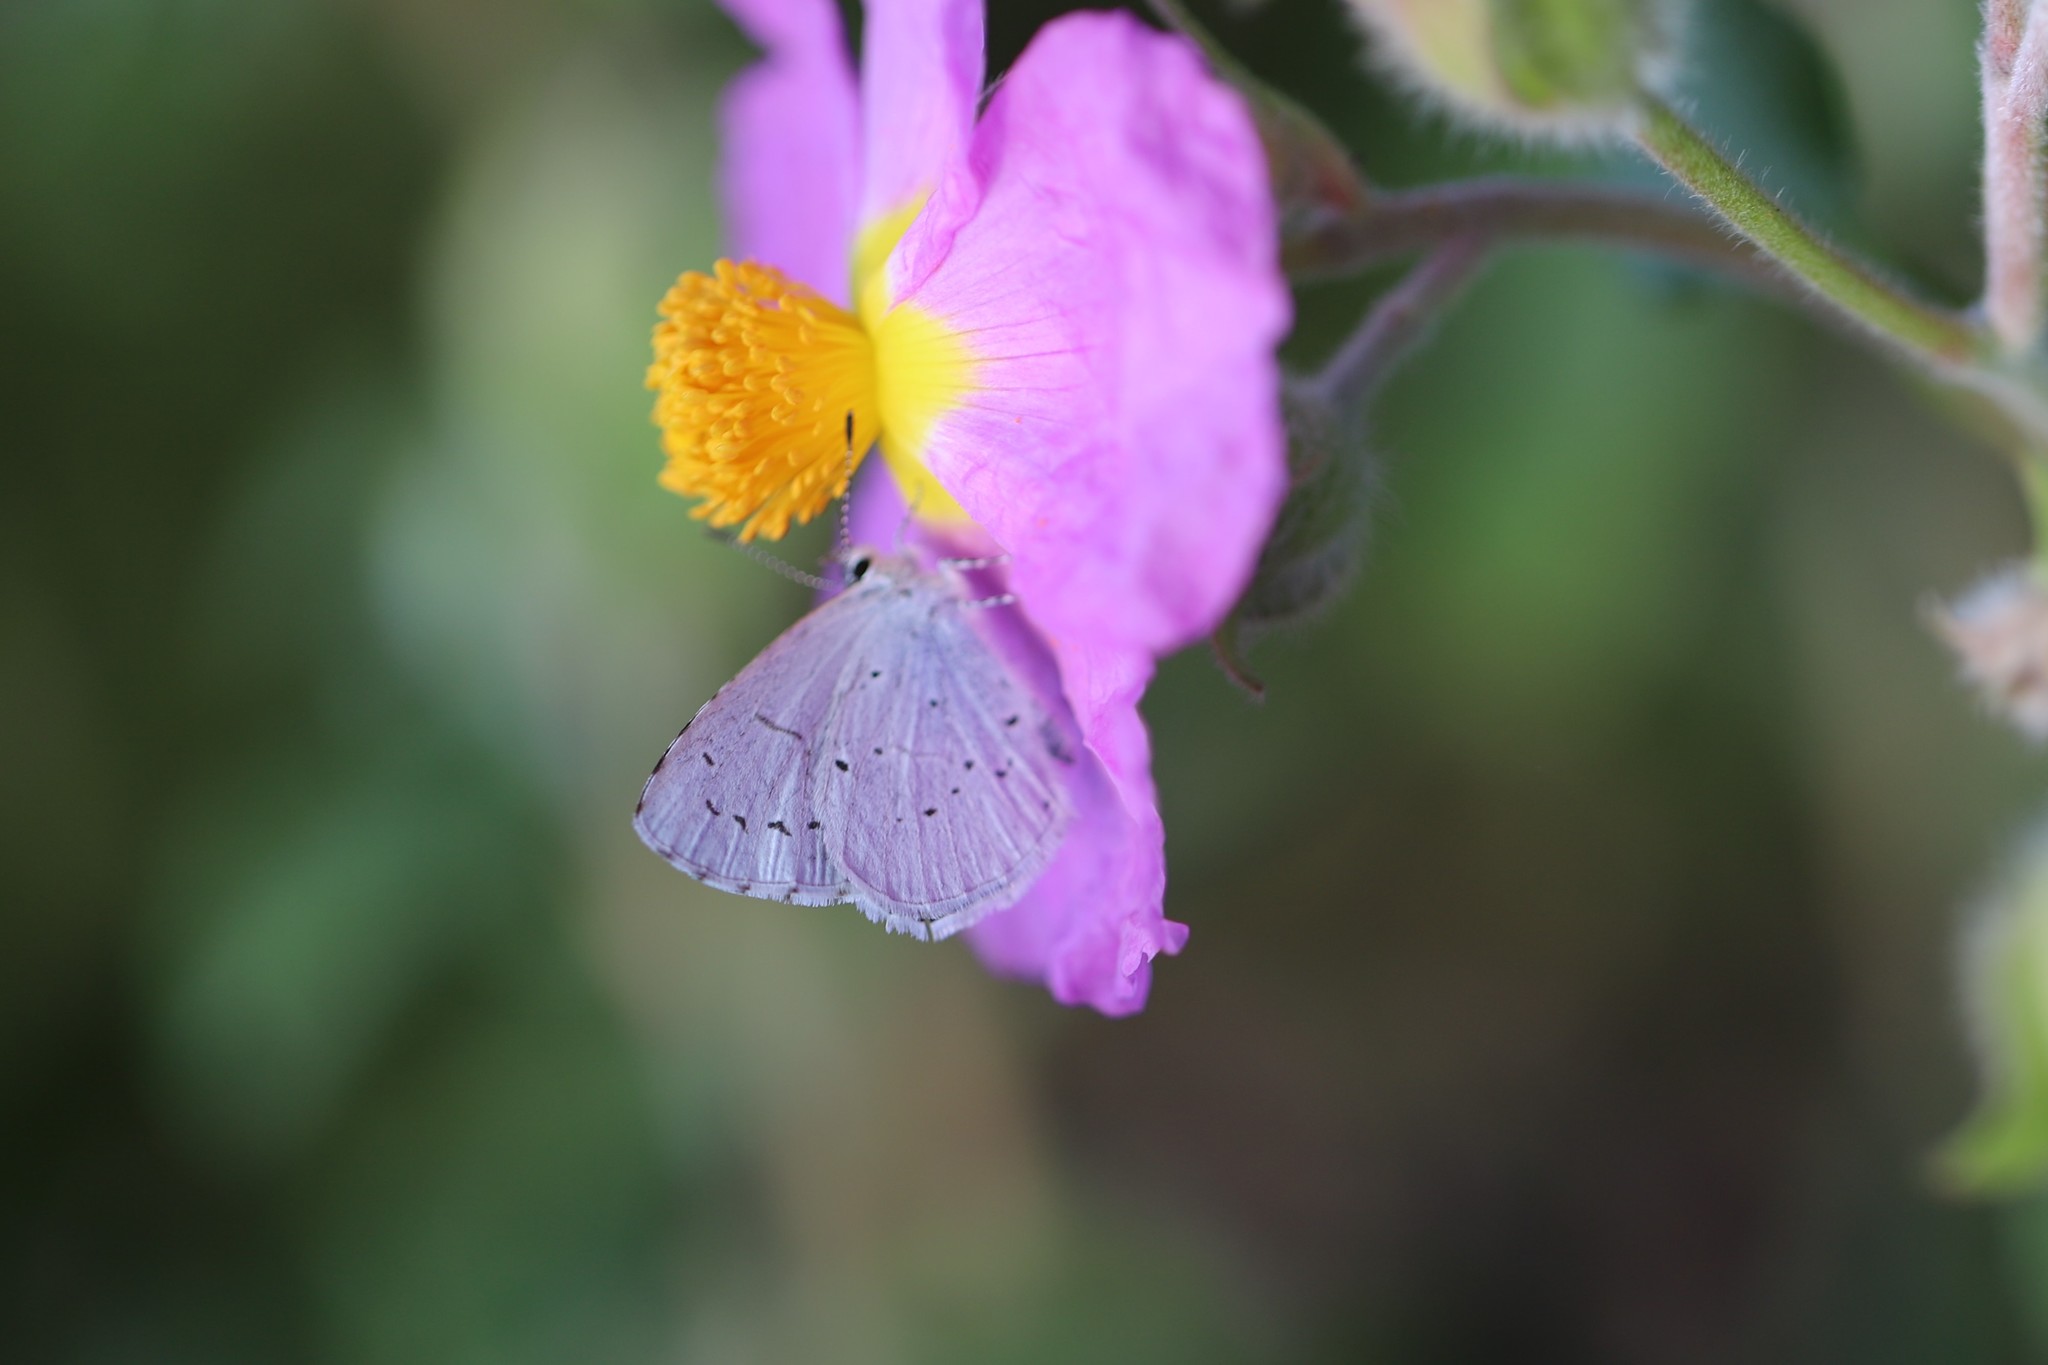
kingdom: Animalia
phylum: Arthropoda
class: Insecta
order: Lepidoptera
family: Lycaenidae
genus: Celastrina
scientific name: Celastrina argiolus
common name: Holly blue
